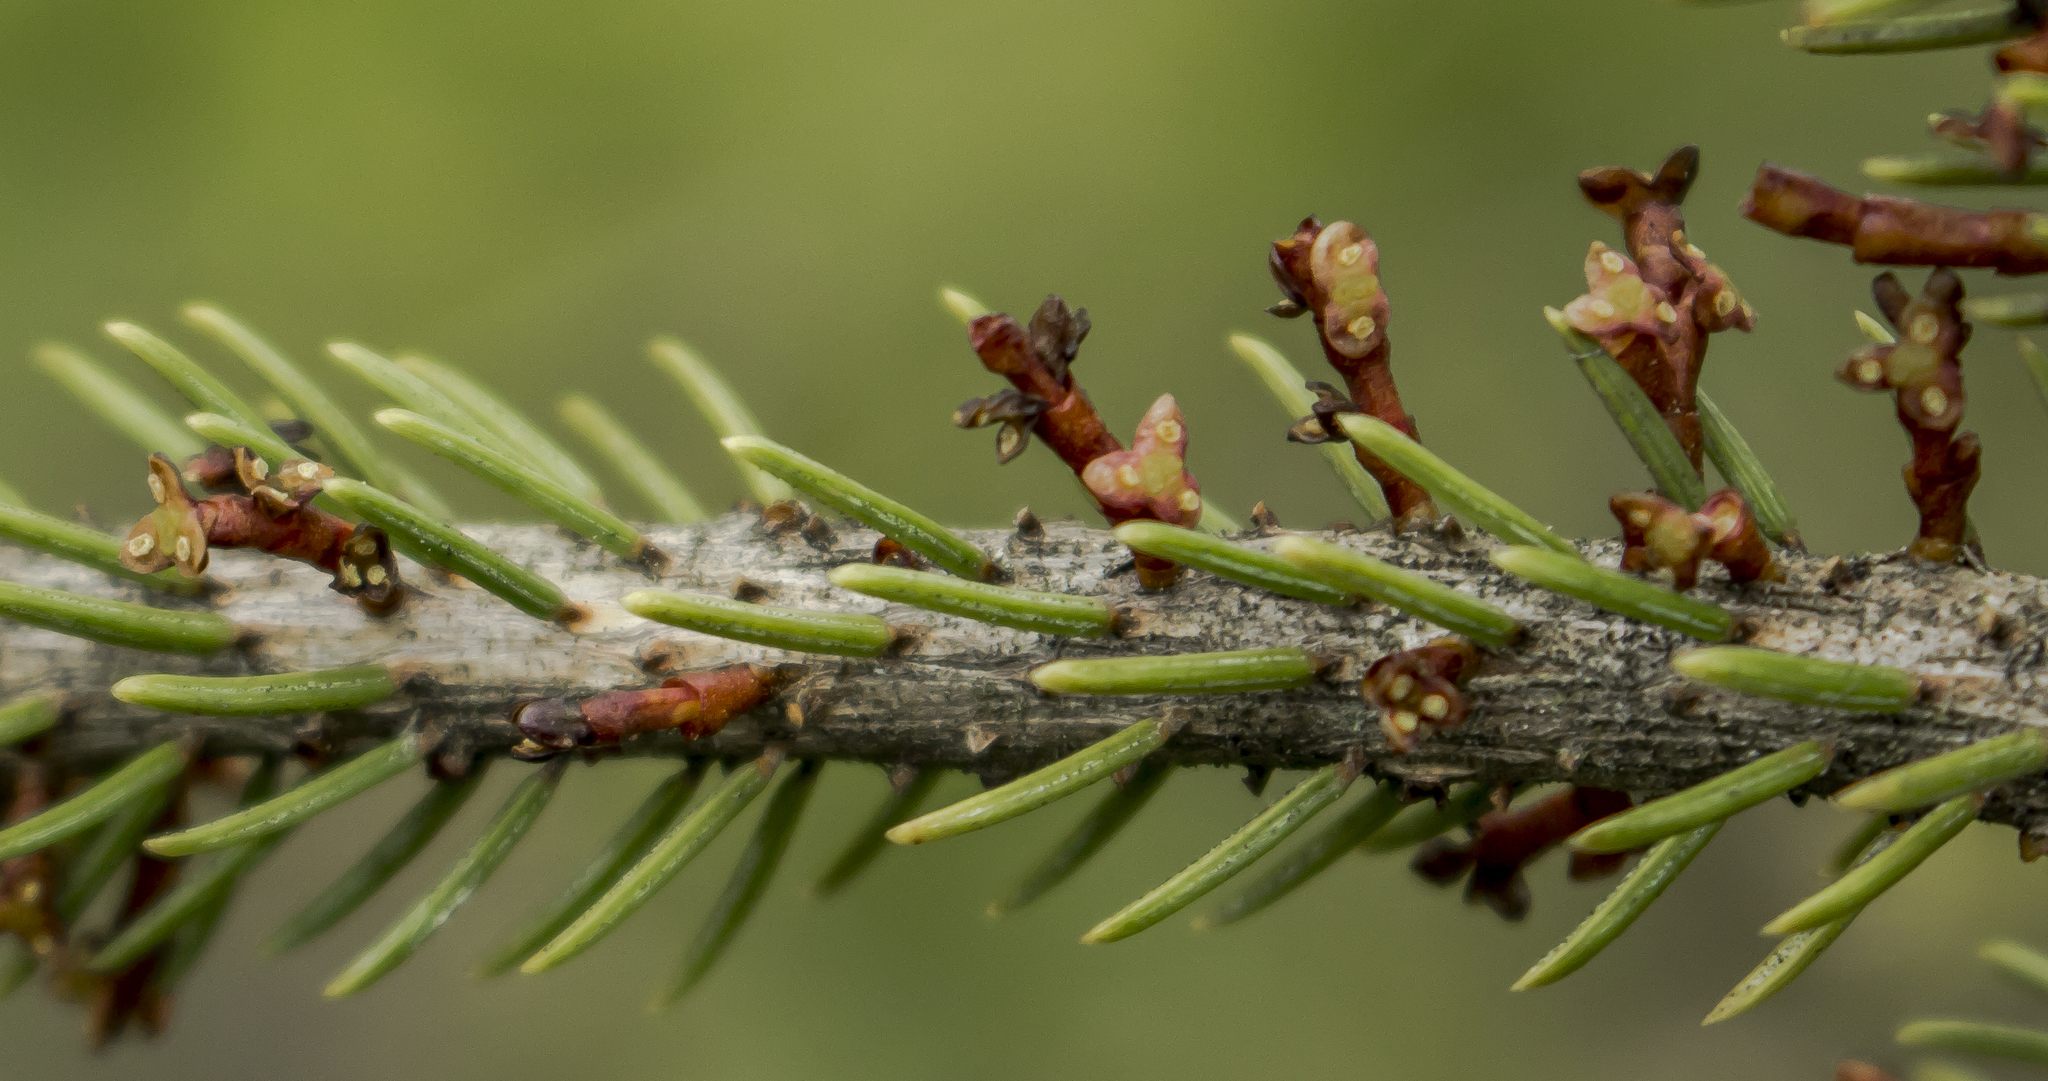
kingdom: Plantae
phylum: Tracheophyta
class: Magnoliopsida
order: Santalales
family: Viscaceae
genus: Arceuthobium
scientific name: Arceuthobium pusillum
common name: Dwarf-mistletoe
